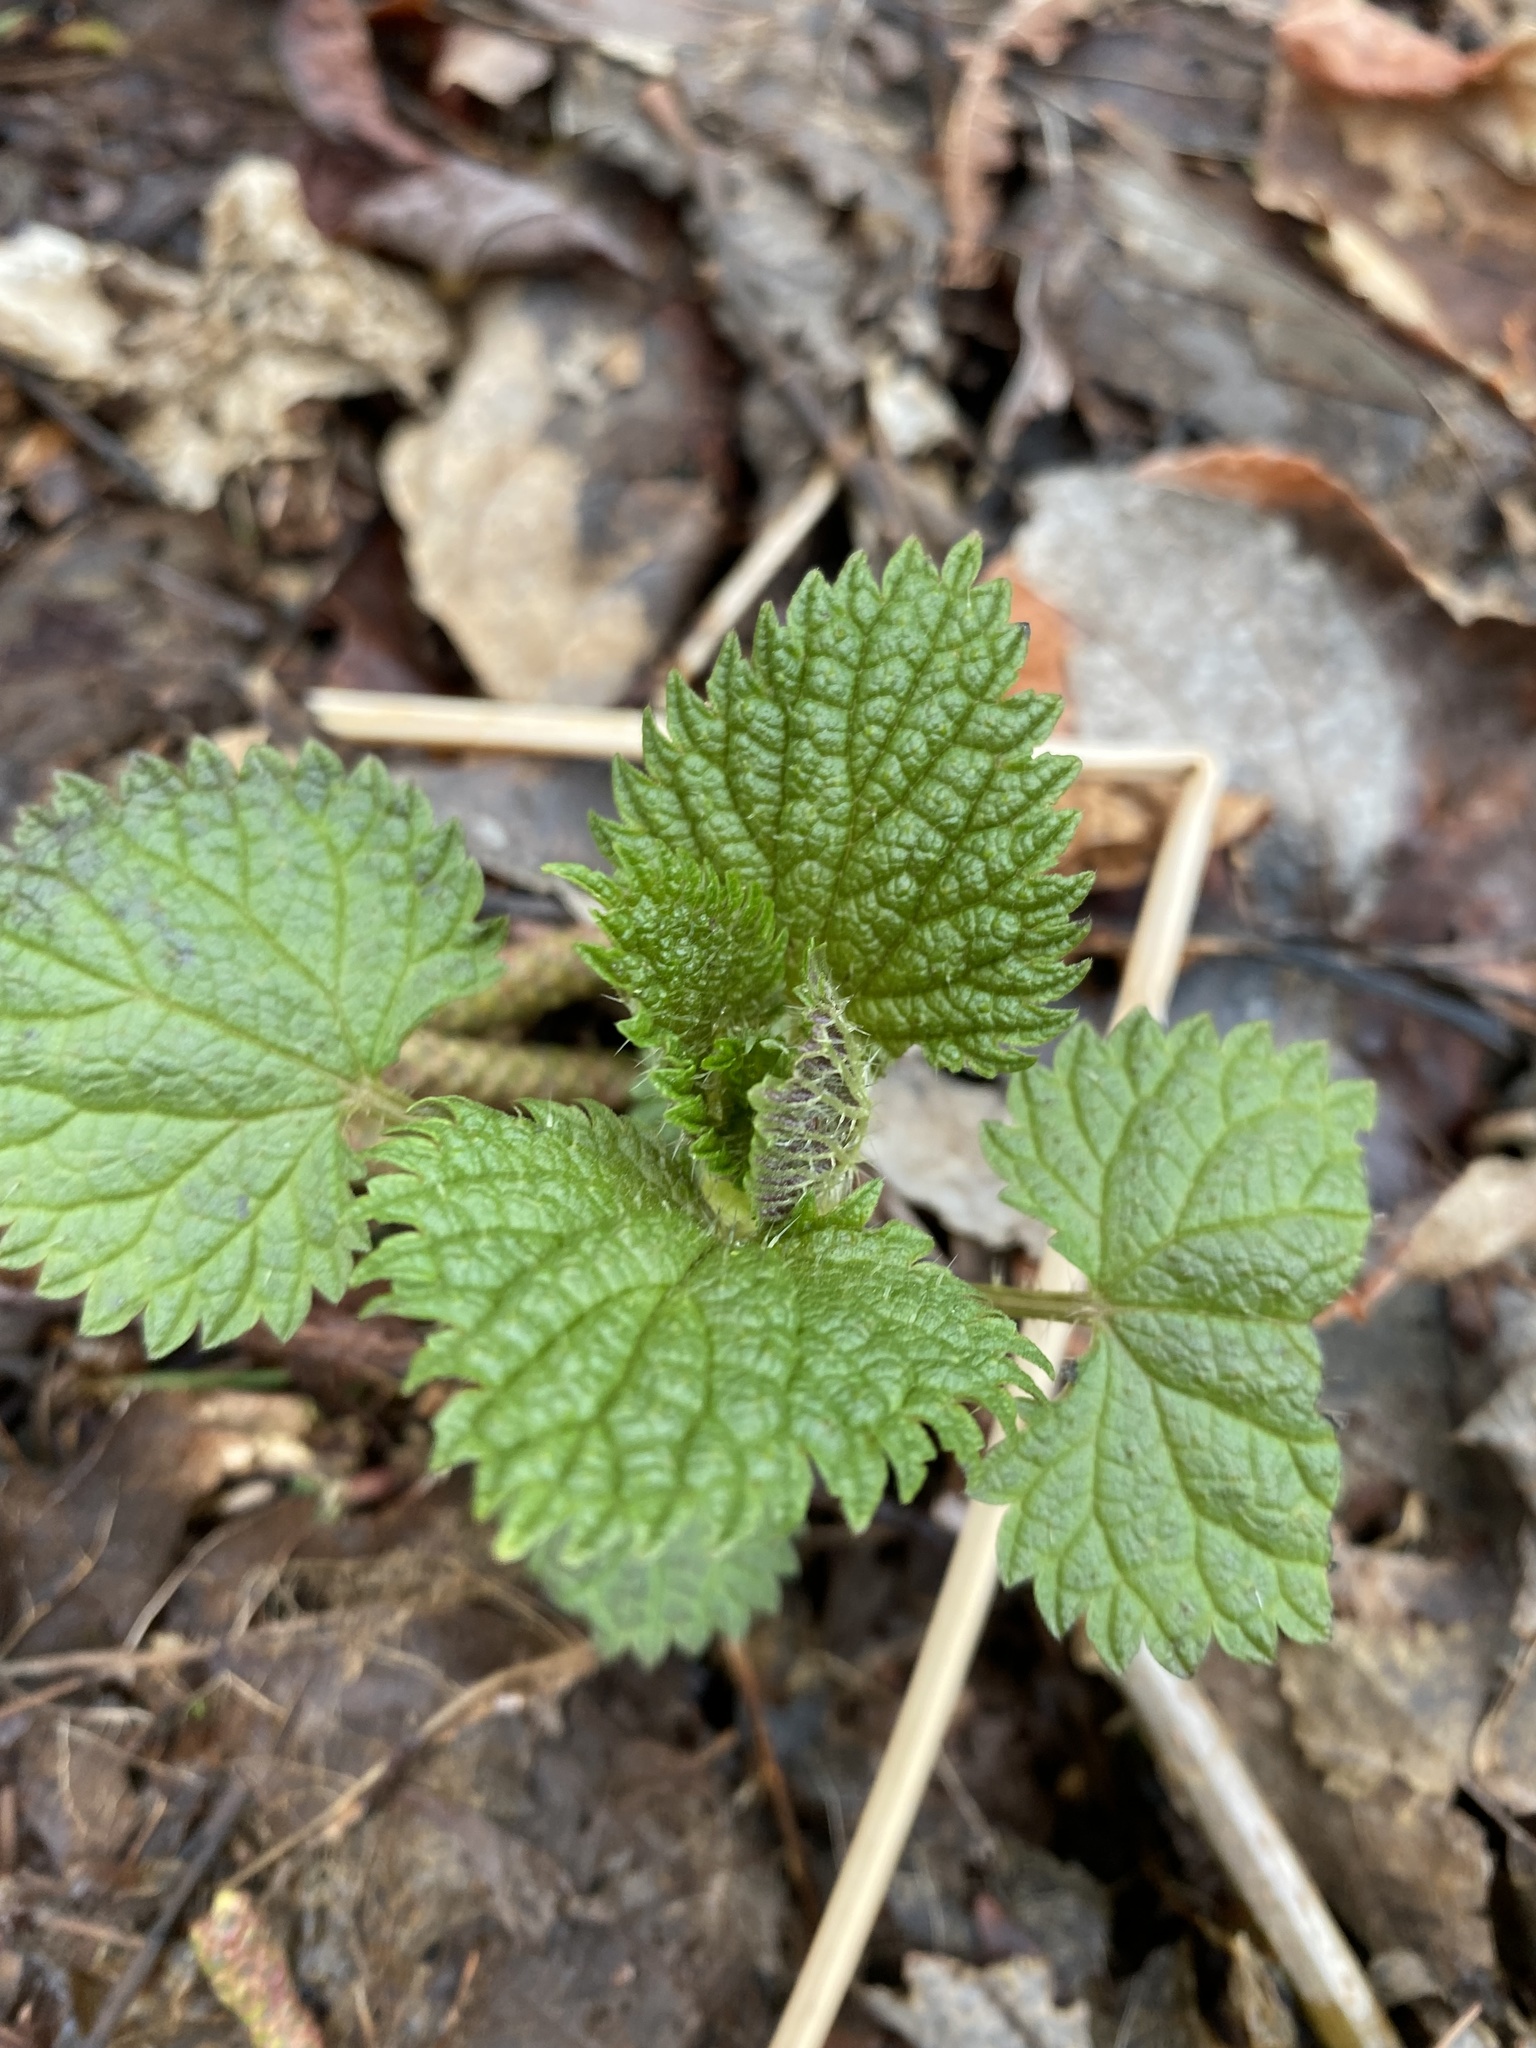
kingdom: Plantae
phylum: Tracheophyta
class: Magnoliopsida
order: Rosales
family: Urticaceae
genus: Urtica
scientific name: Urtica dioica
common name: Common nettle
